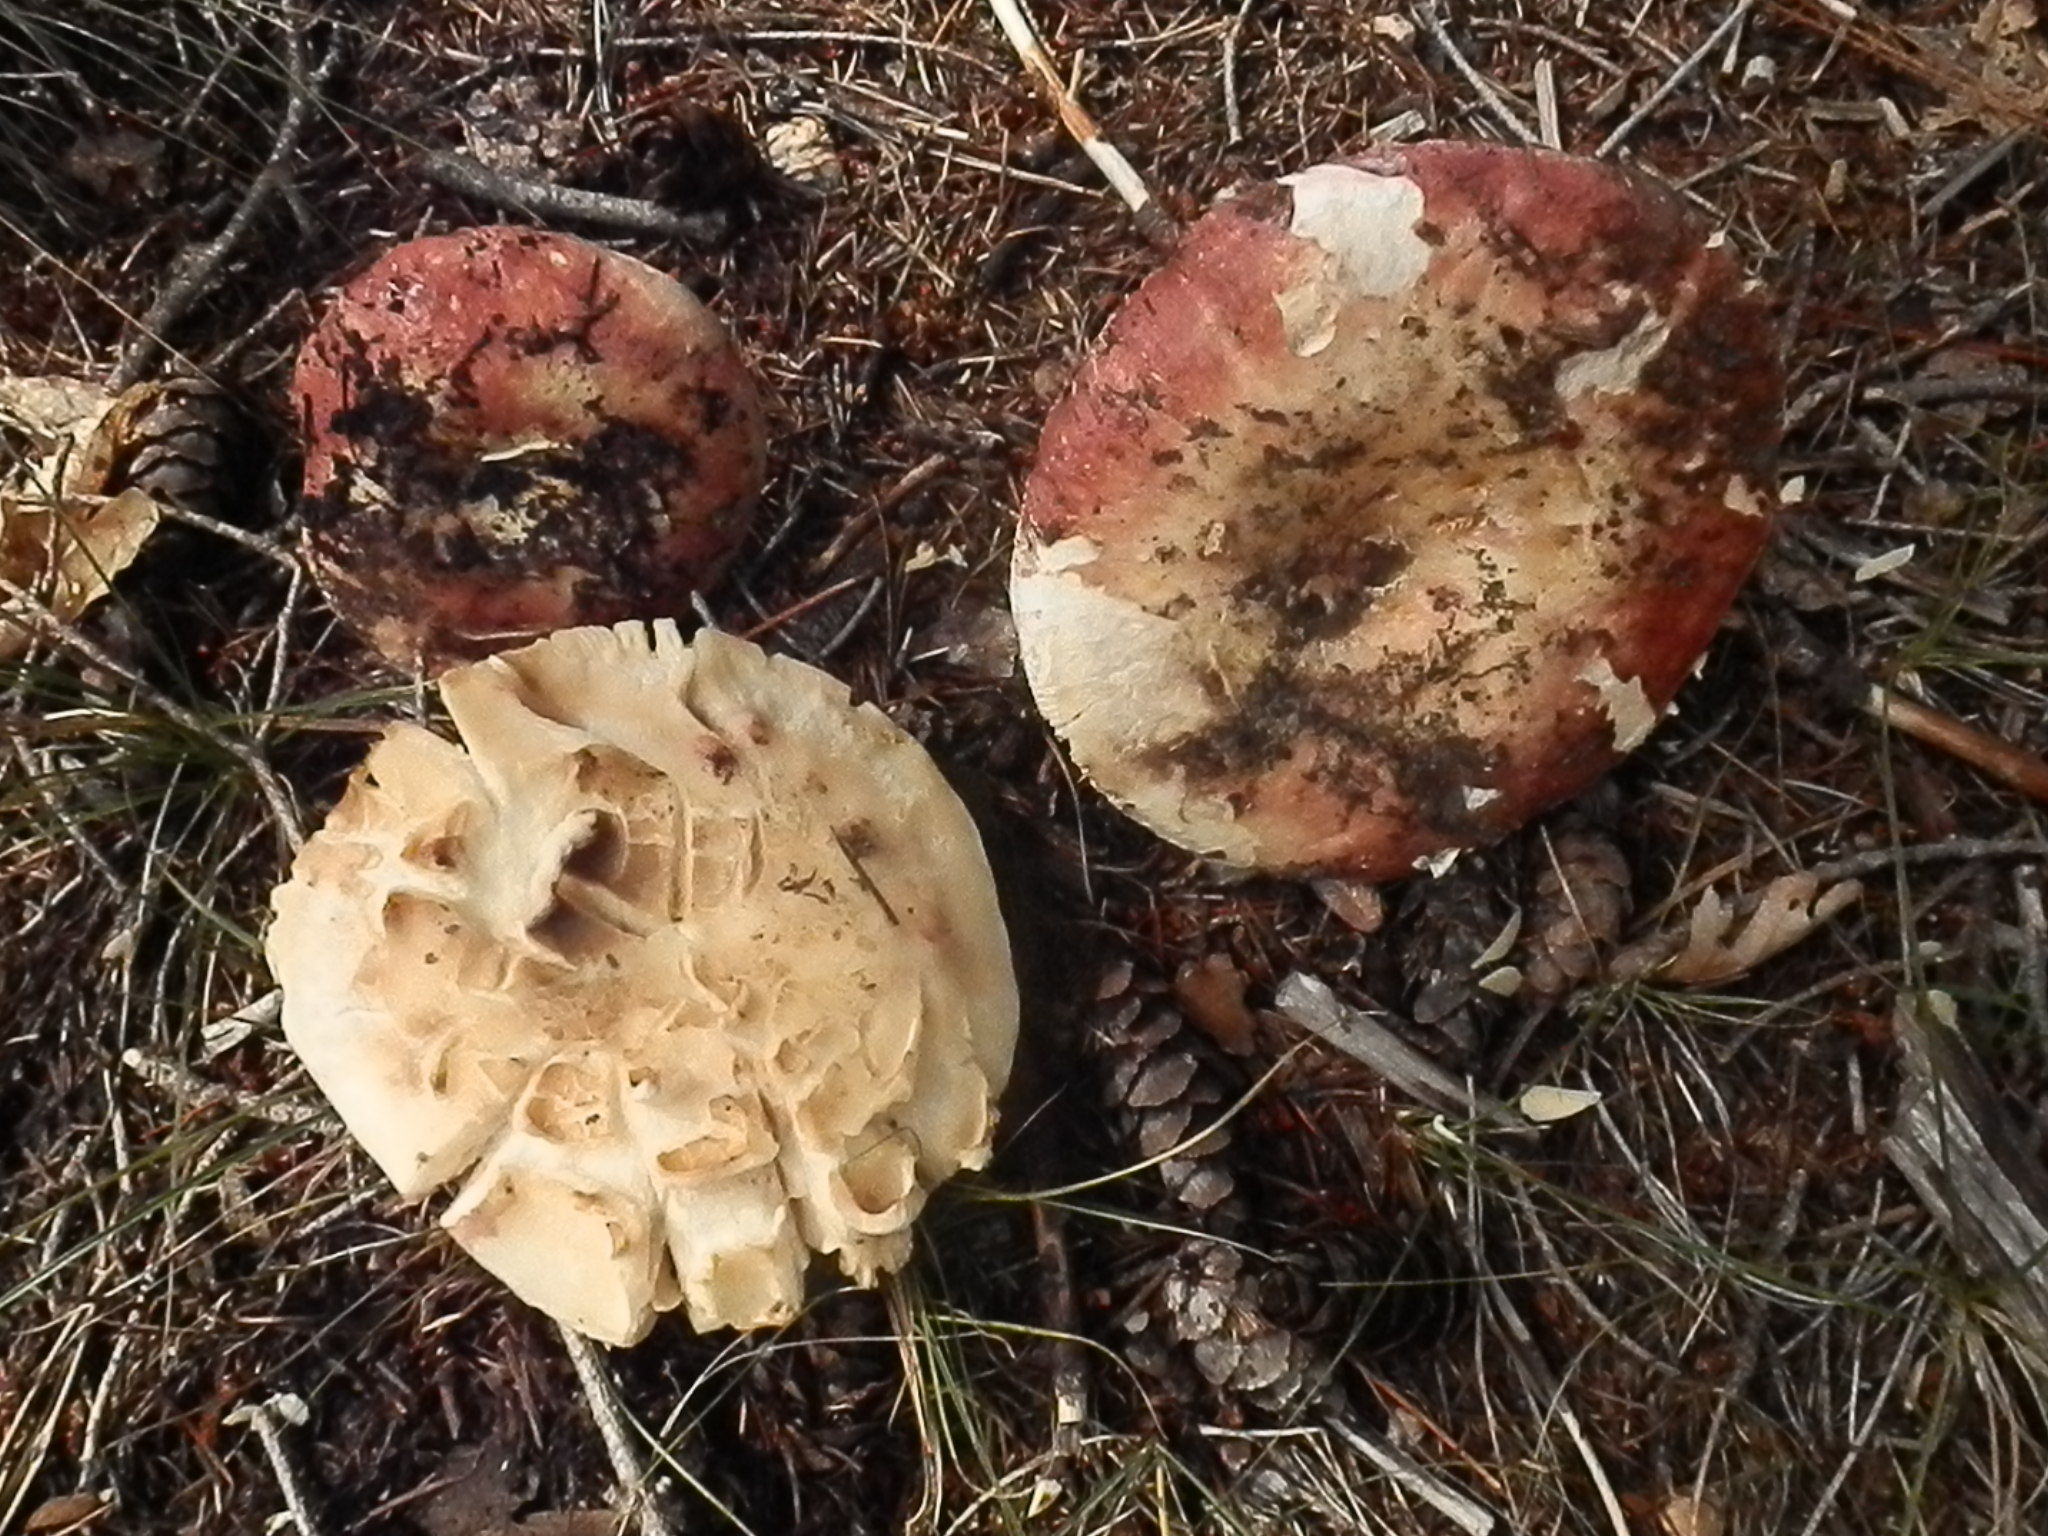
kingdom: Fungi
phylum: Basidiomycota
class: Agaricomycetes
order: Russulales
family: Russulaceae
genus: Russula
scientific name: Russula integra
